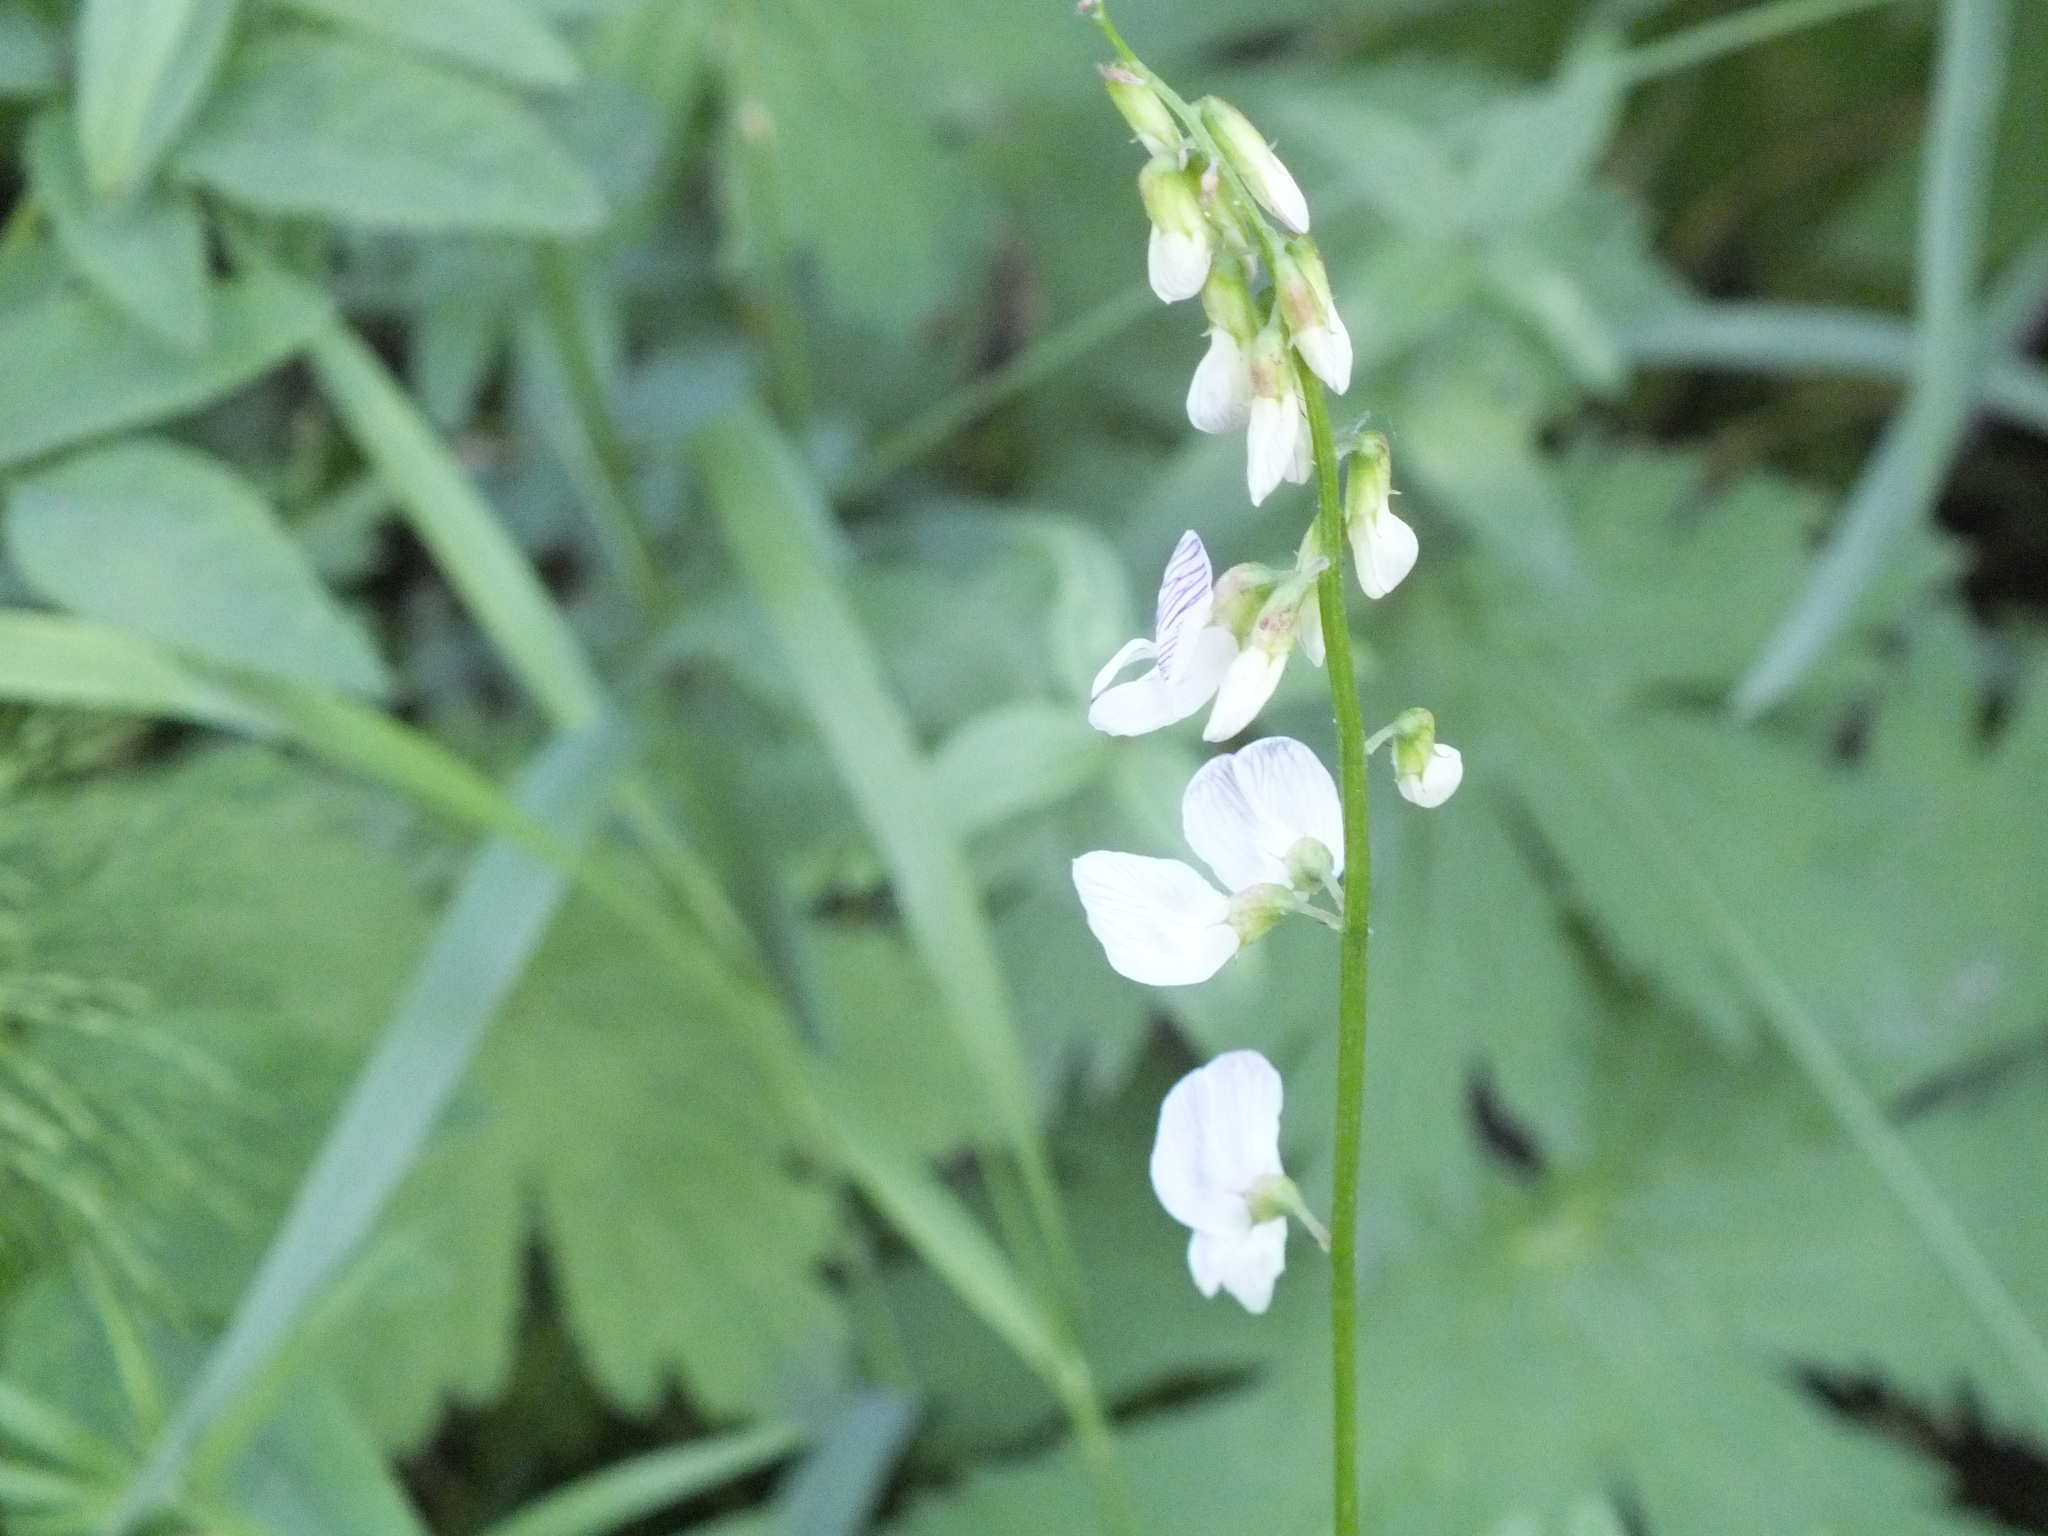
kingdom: Plantae
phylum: Tracheophyta
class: Magnoliopsida
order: Fabales
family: Fabaceae
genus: Vicia
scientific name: Vicia sylvatica
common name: Wood vetch
